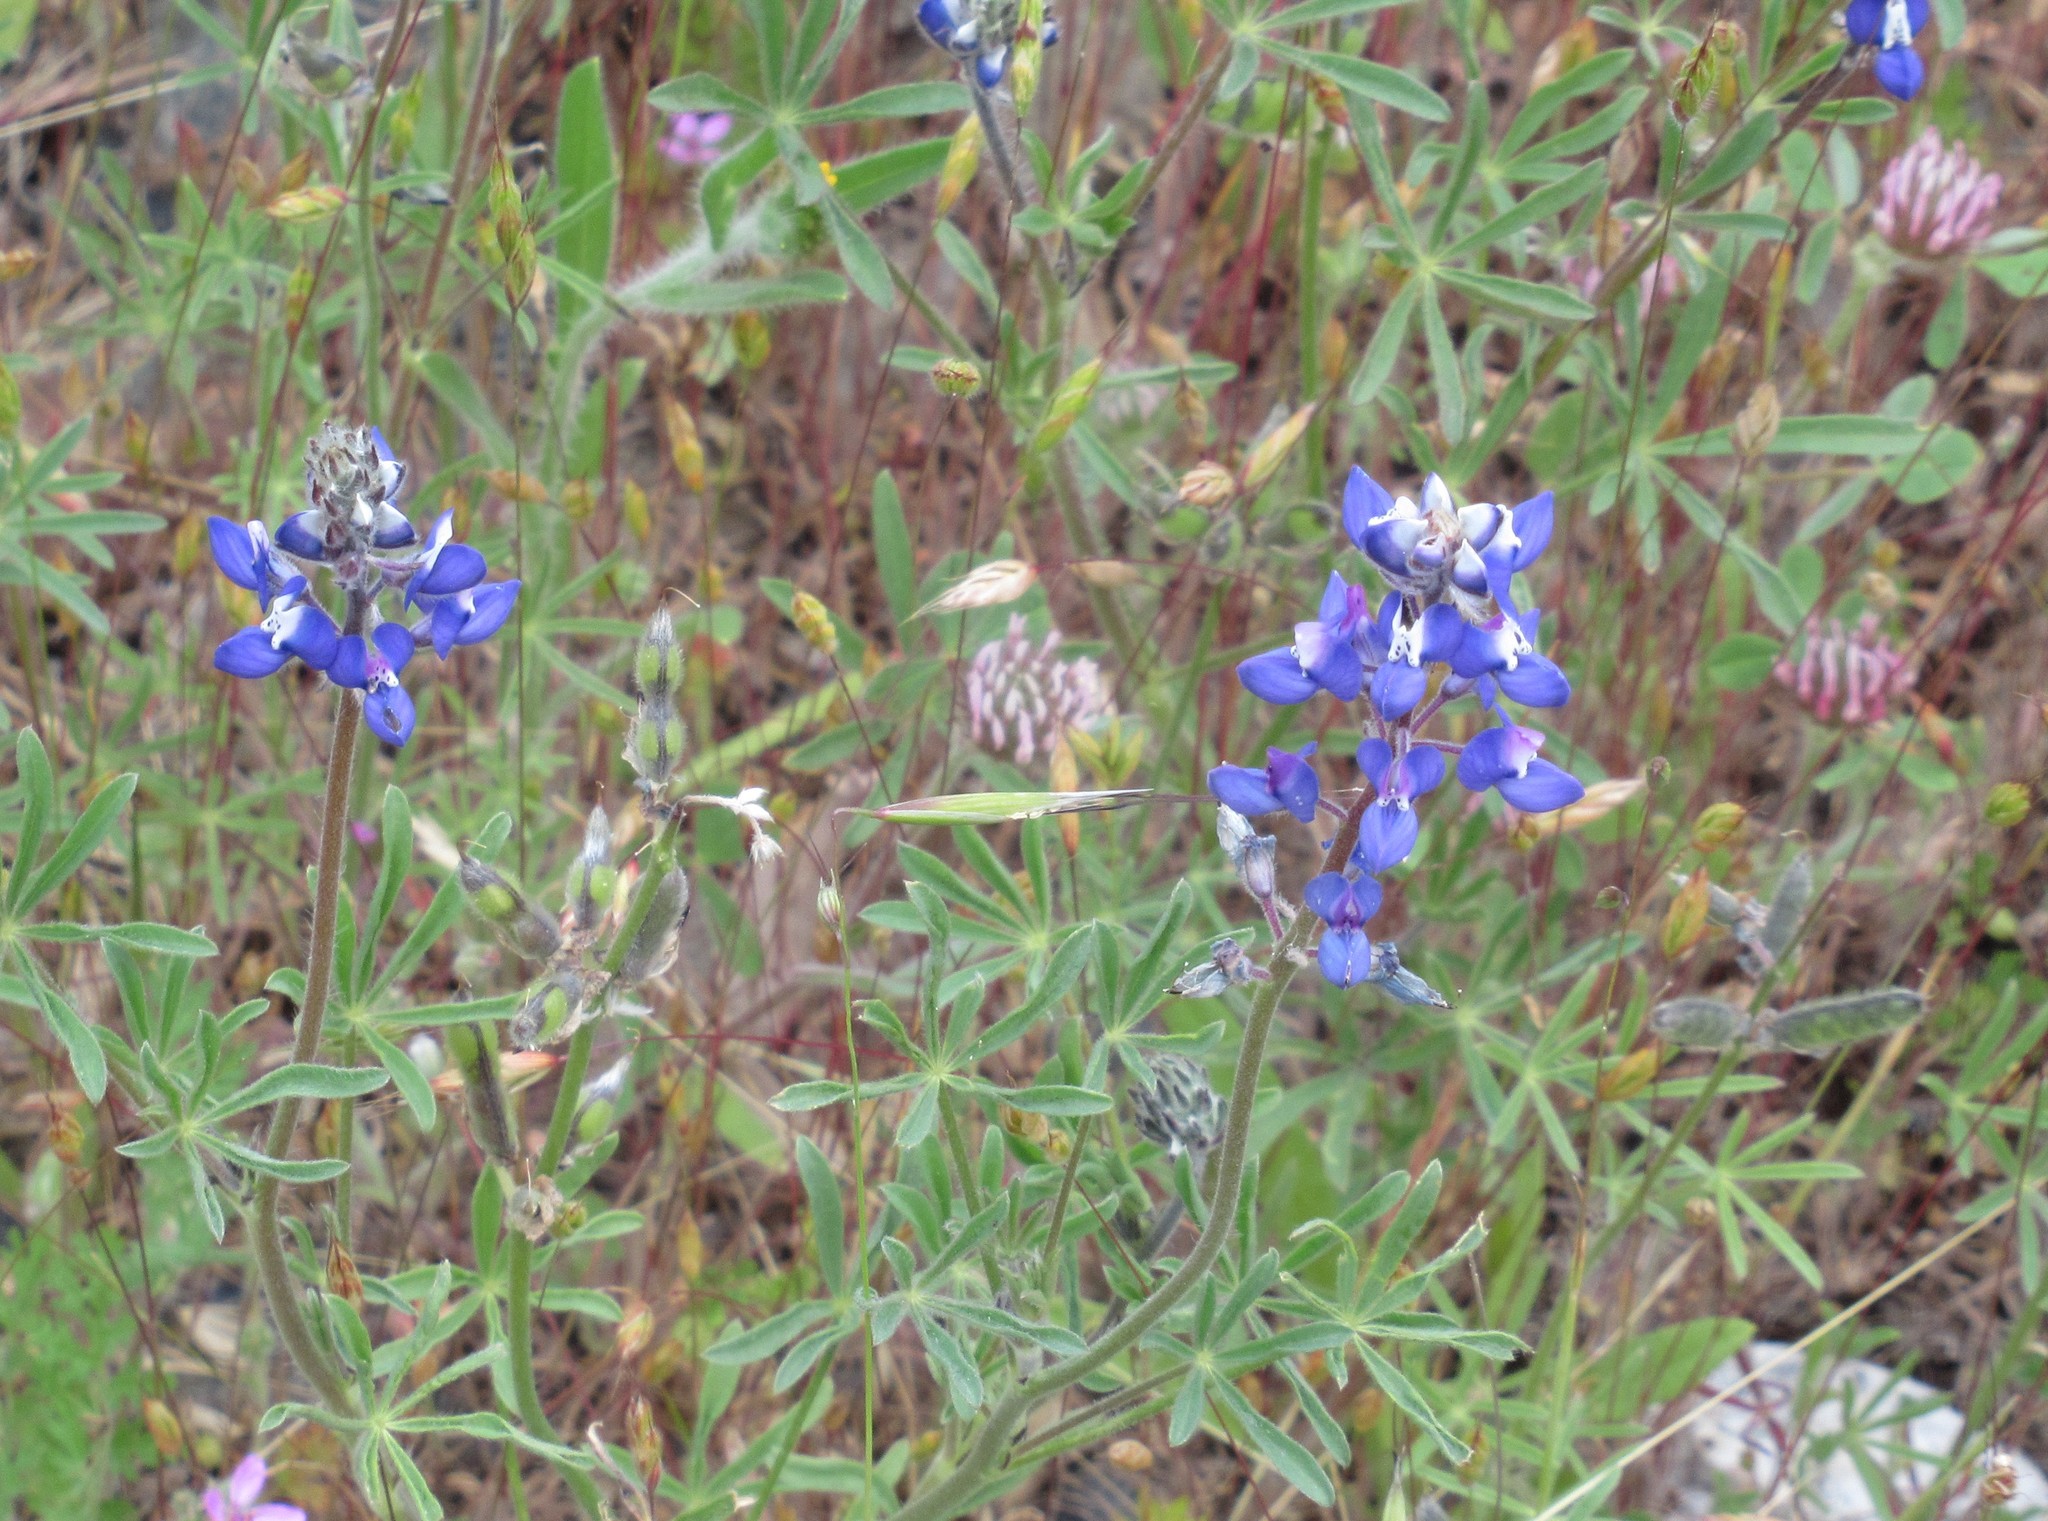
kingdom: Plantae
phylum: Tracheophyta
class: Magnoliopsida
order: Fabales
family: Fabaceae
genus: Lupinus
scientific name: Lupinus bicolor
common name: Miniature lupine
